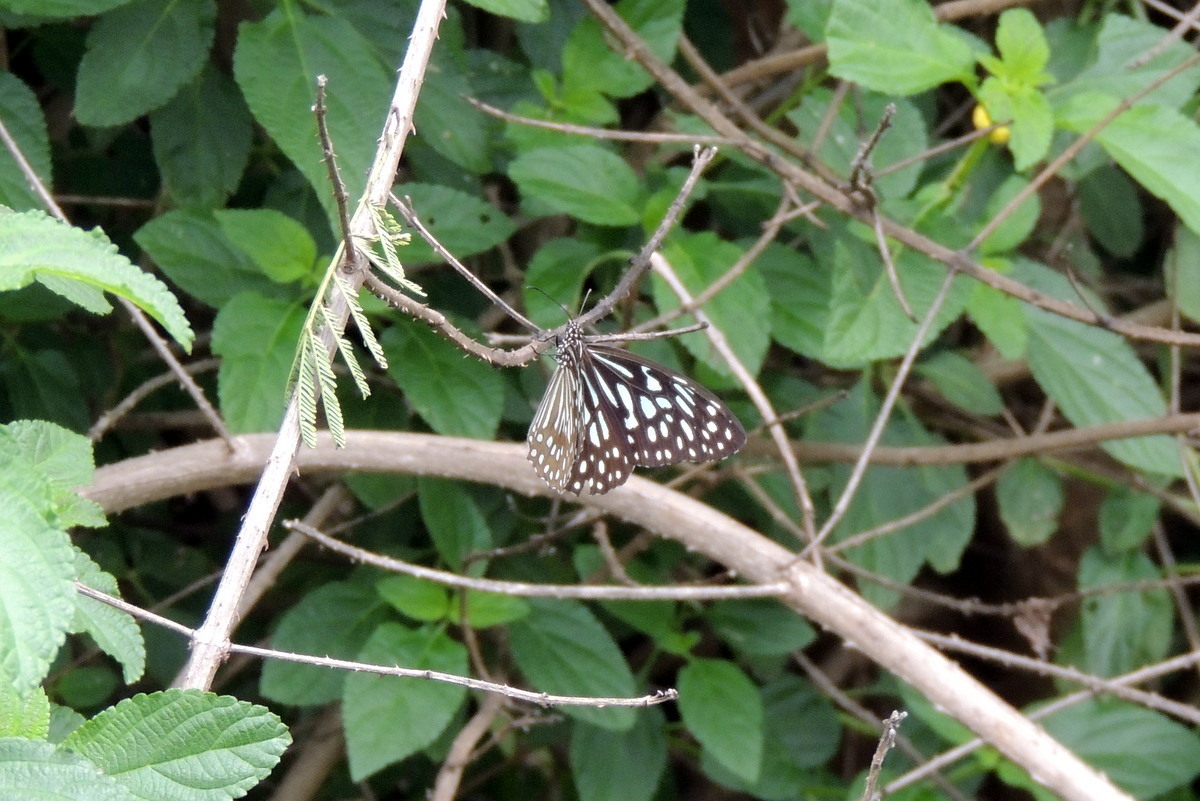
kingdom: Animalia
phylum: Arthropoda
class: Insecta
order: Lepidoptera
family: Nymphalidae
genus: Tirumala
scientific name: Tirumala septentrionis
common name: Dark blue tiger butterfly
